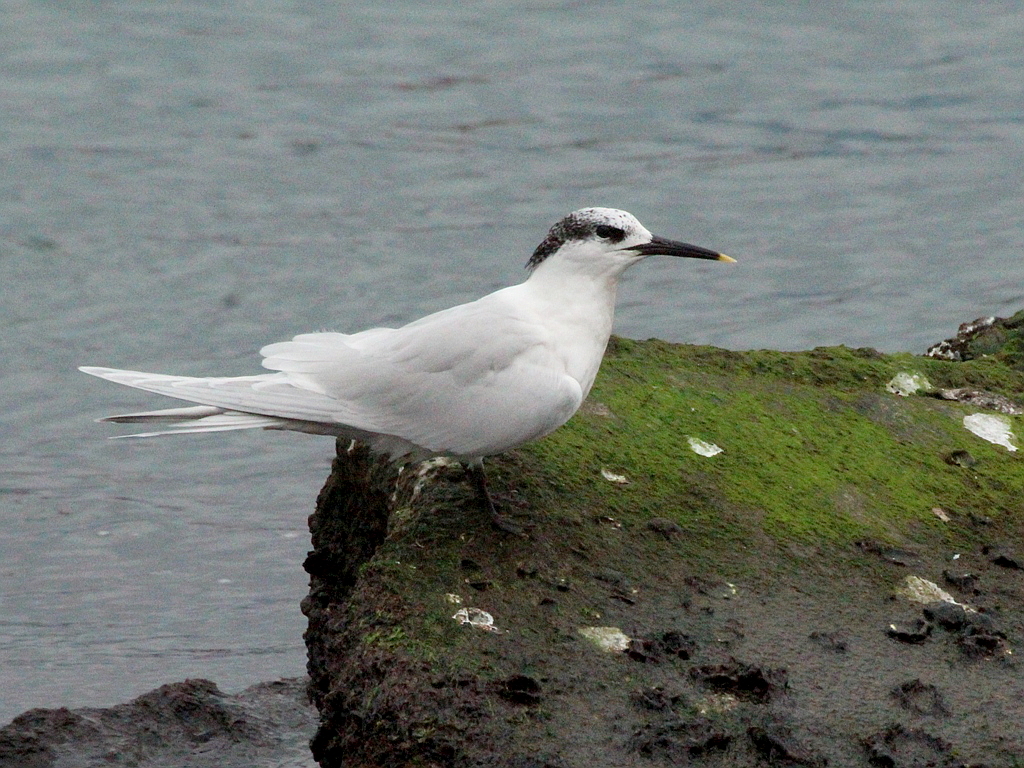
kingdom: Animalia
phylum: Chordata
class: Aves
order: Charadriiformes
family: Laridae
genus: Thalasseus
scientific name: Thalasseus sandvicensis
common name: Sandwich tern
